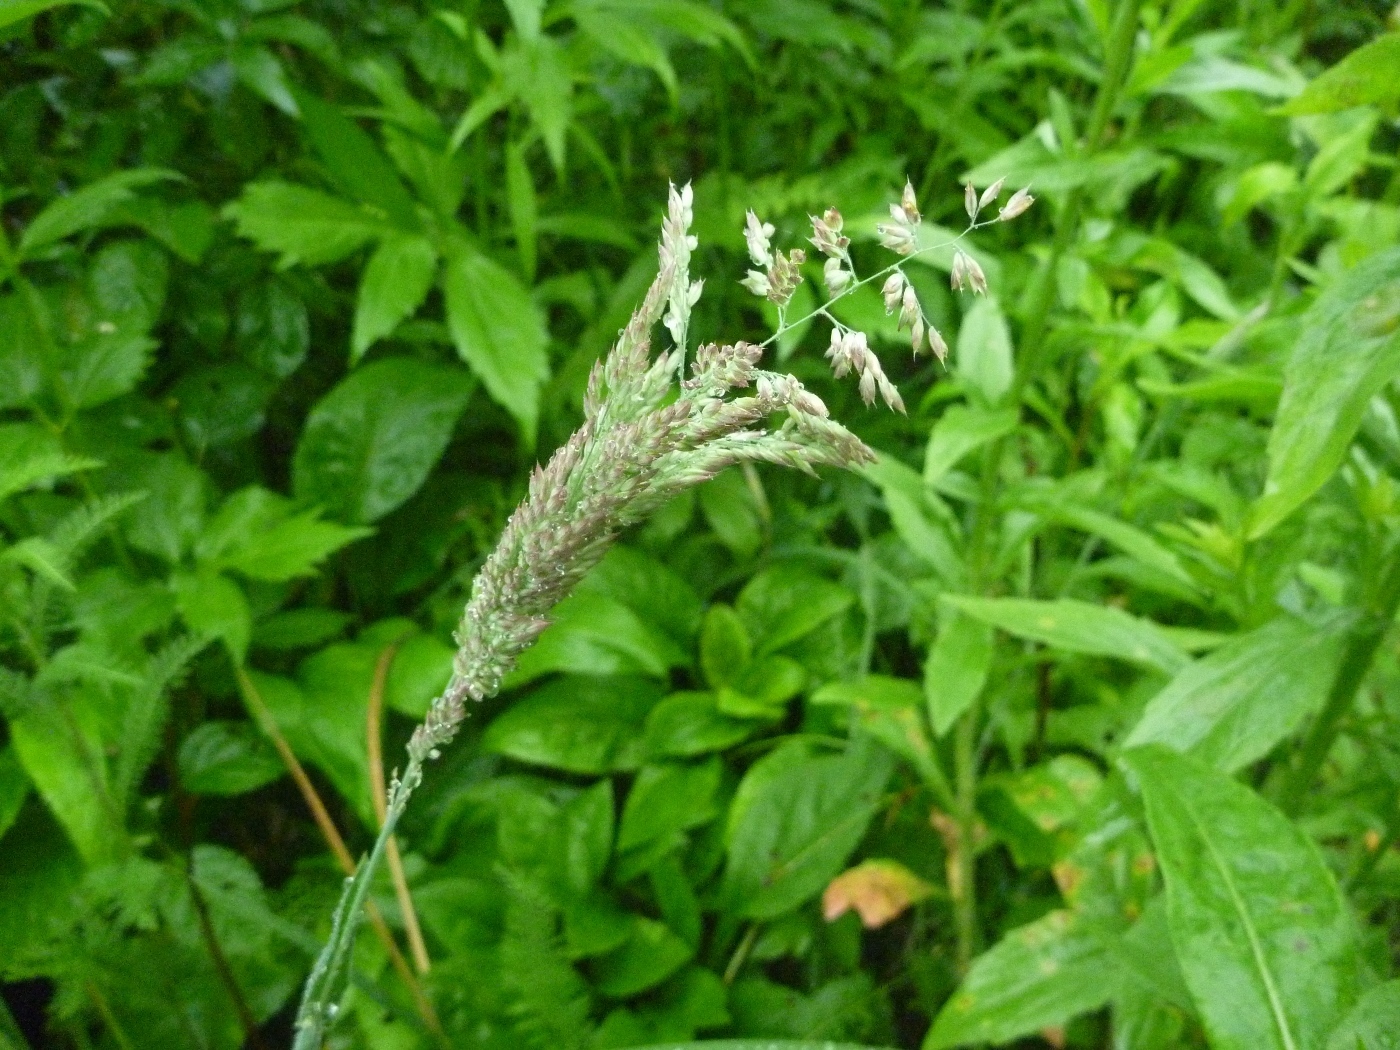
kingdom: Plantae
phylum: Tracheophyta
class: Liliopsida
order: Poales
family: Poaceae
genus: Holcus
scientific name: Holcus lanatus
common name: Yorkshire-fog
